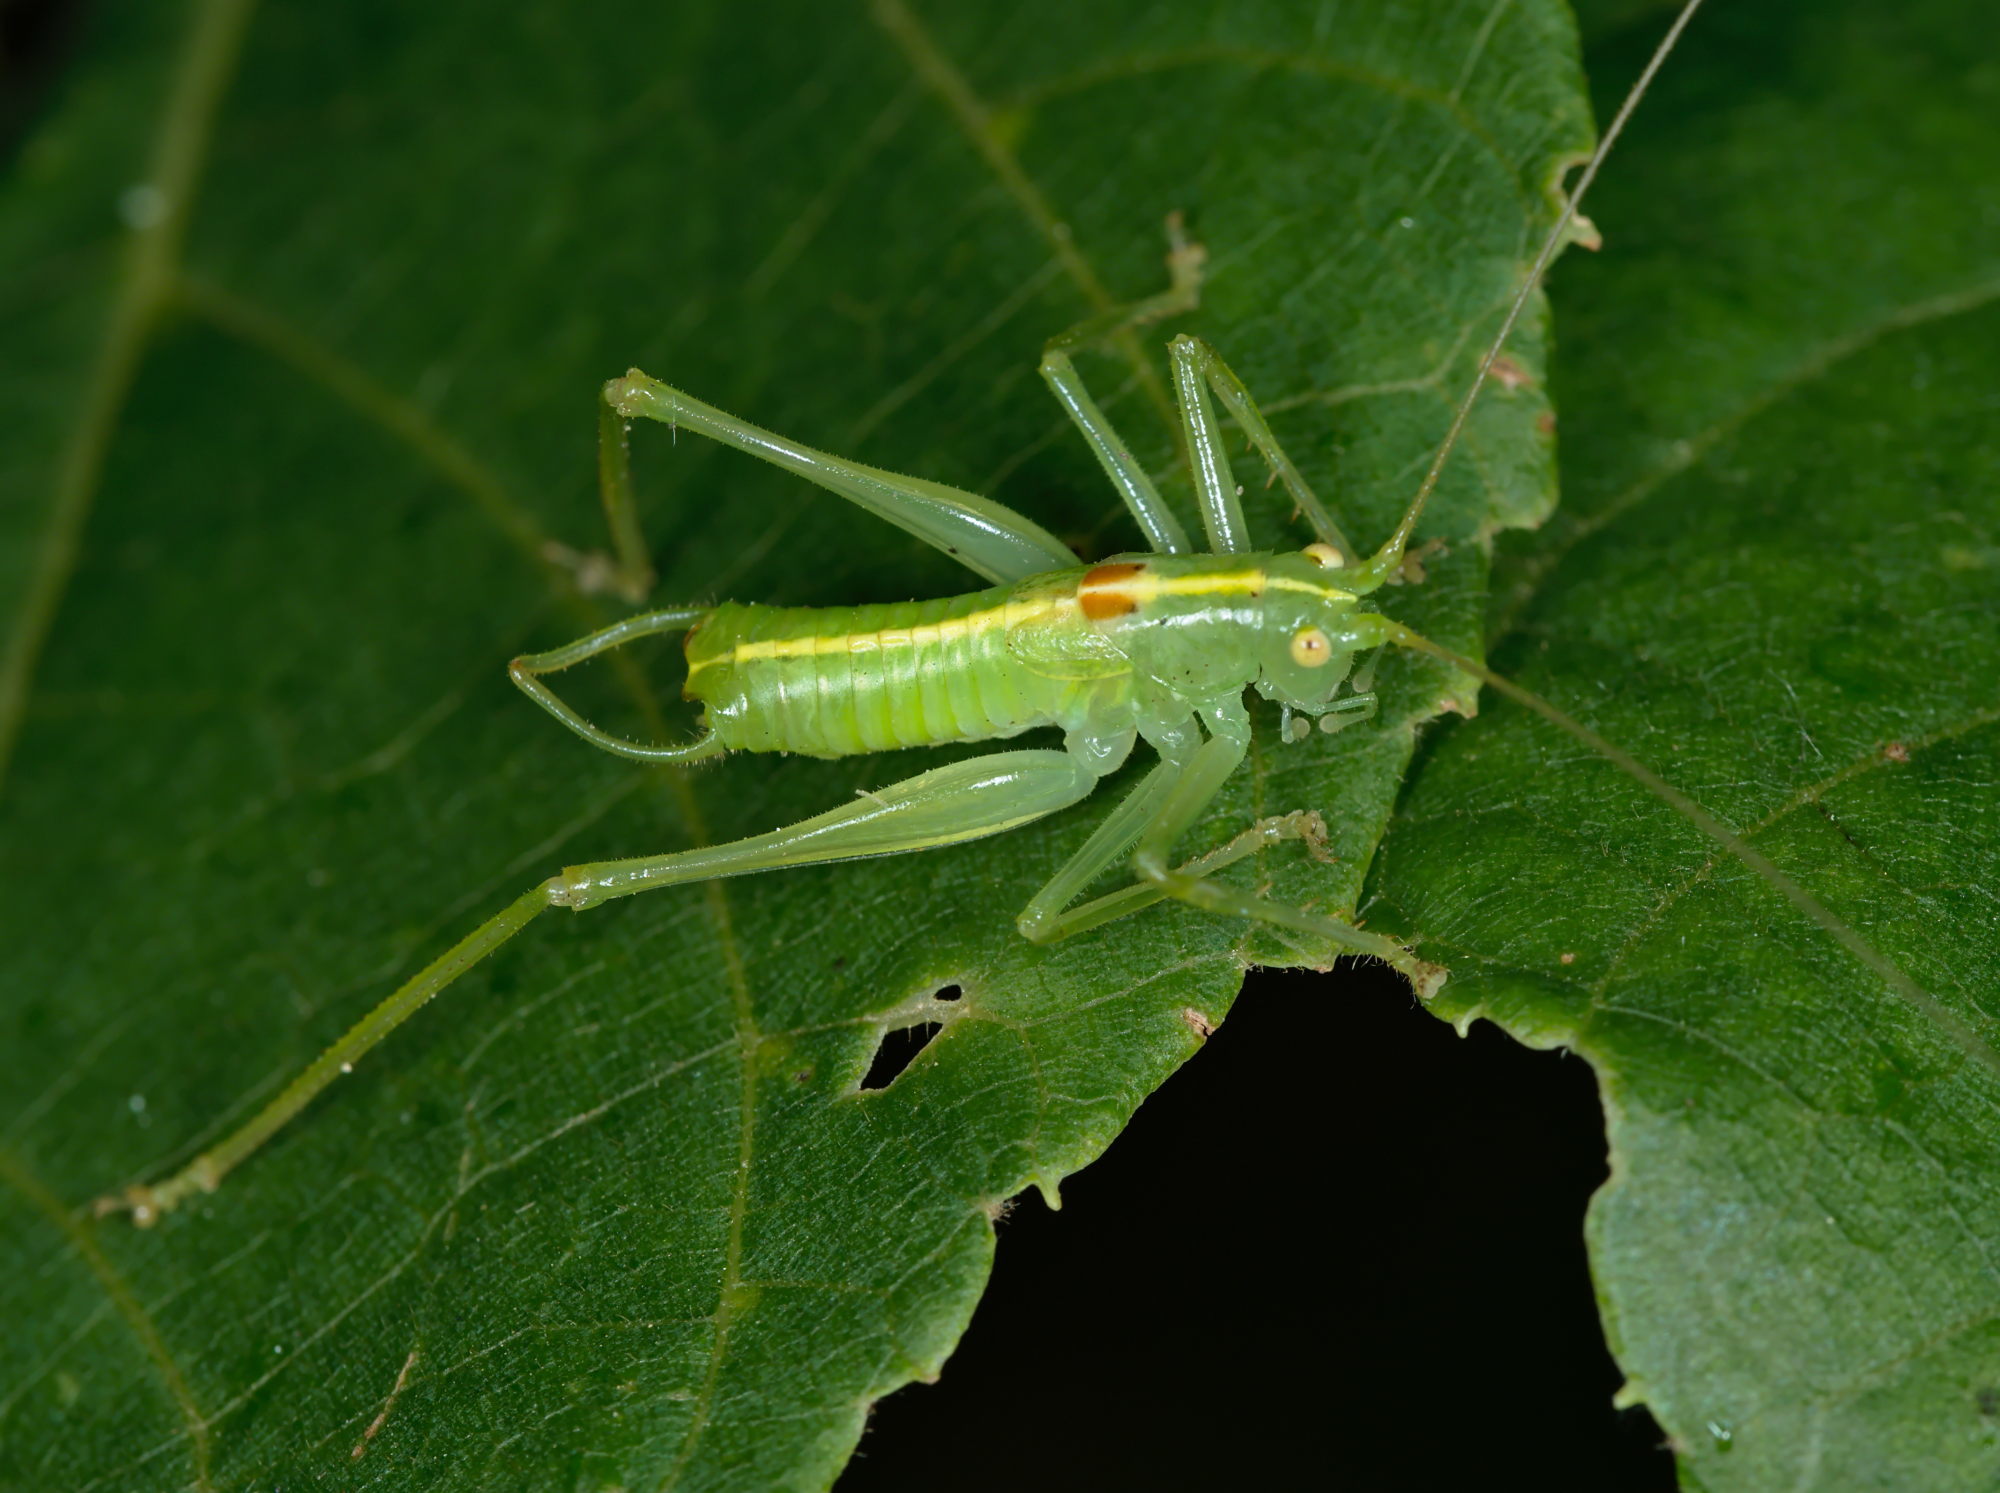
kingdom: Animalia
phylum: Arthropoda
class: Insecta
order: Orthoptera
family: Tettigoniidae
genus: Meconema
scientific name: Meconema meridionale
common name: Southern oak bush-cricket
